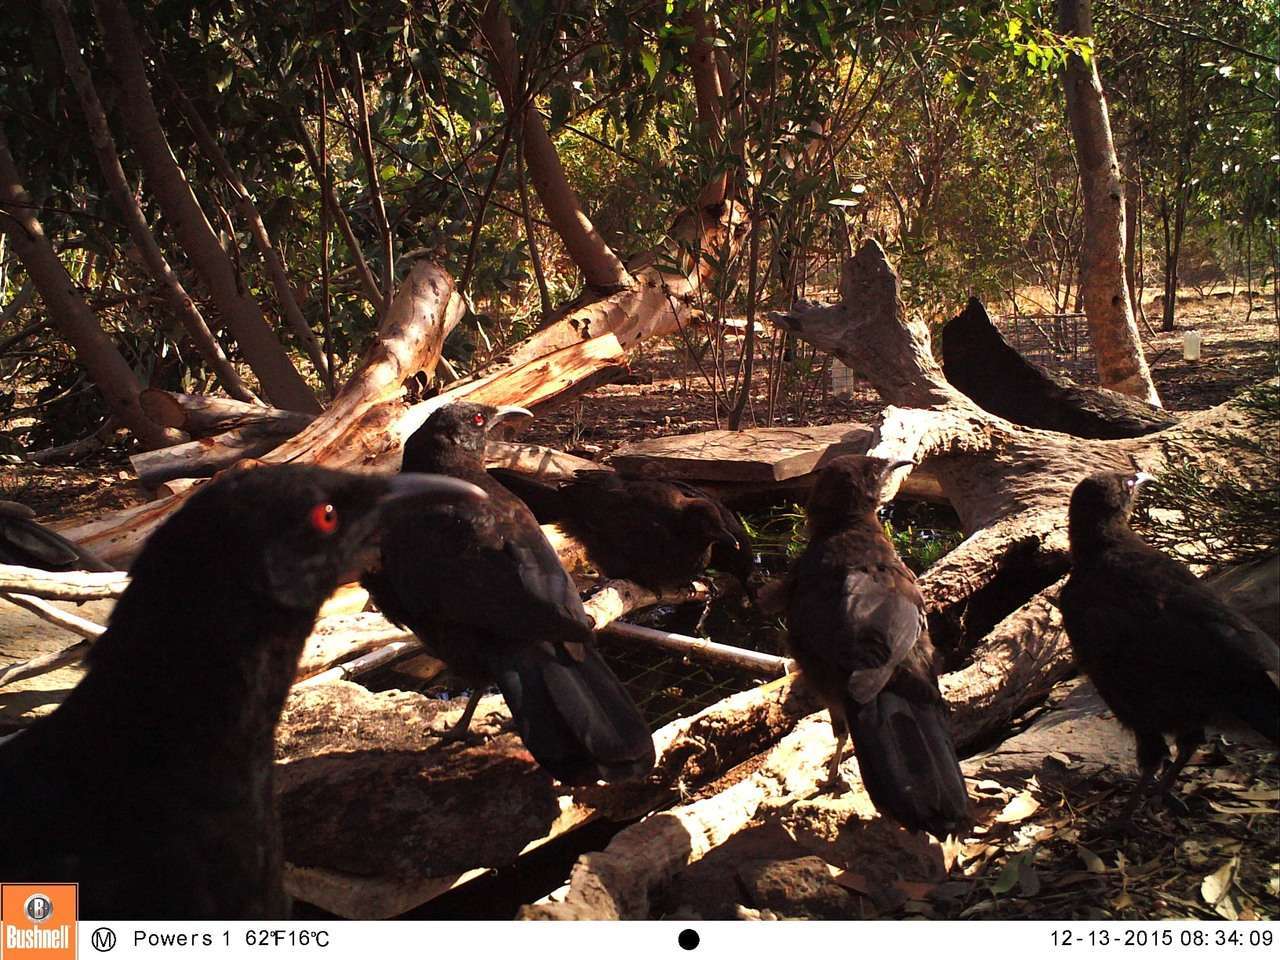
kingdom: Animalia
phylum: Chordata
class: Aves
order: Passeriformes
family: Corcoracidae
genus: Corcorax
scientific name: Corcorax melanoramphos
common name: White-winged chough
